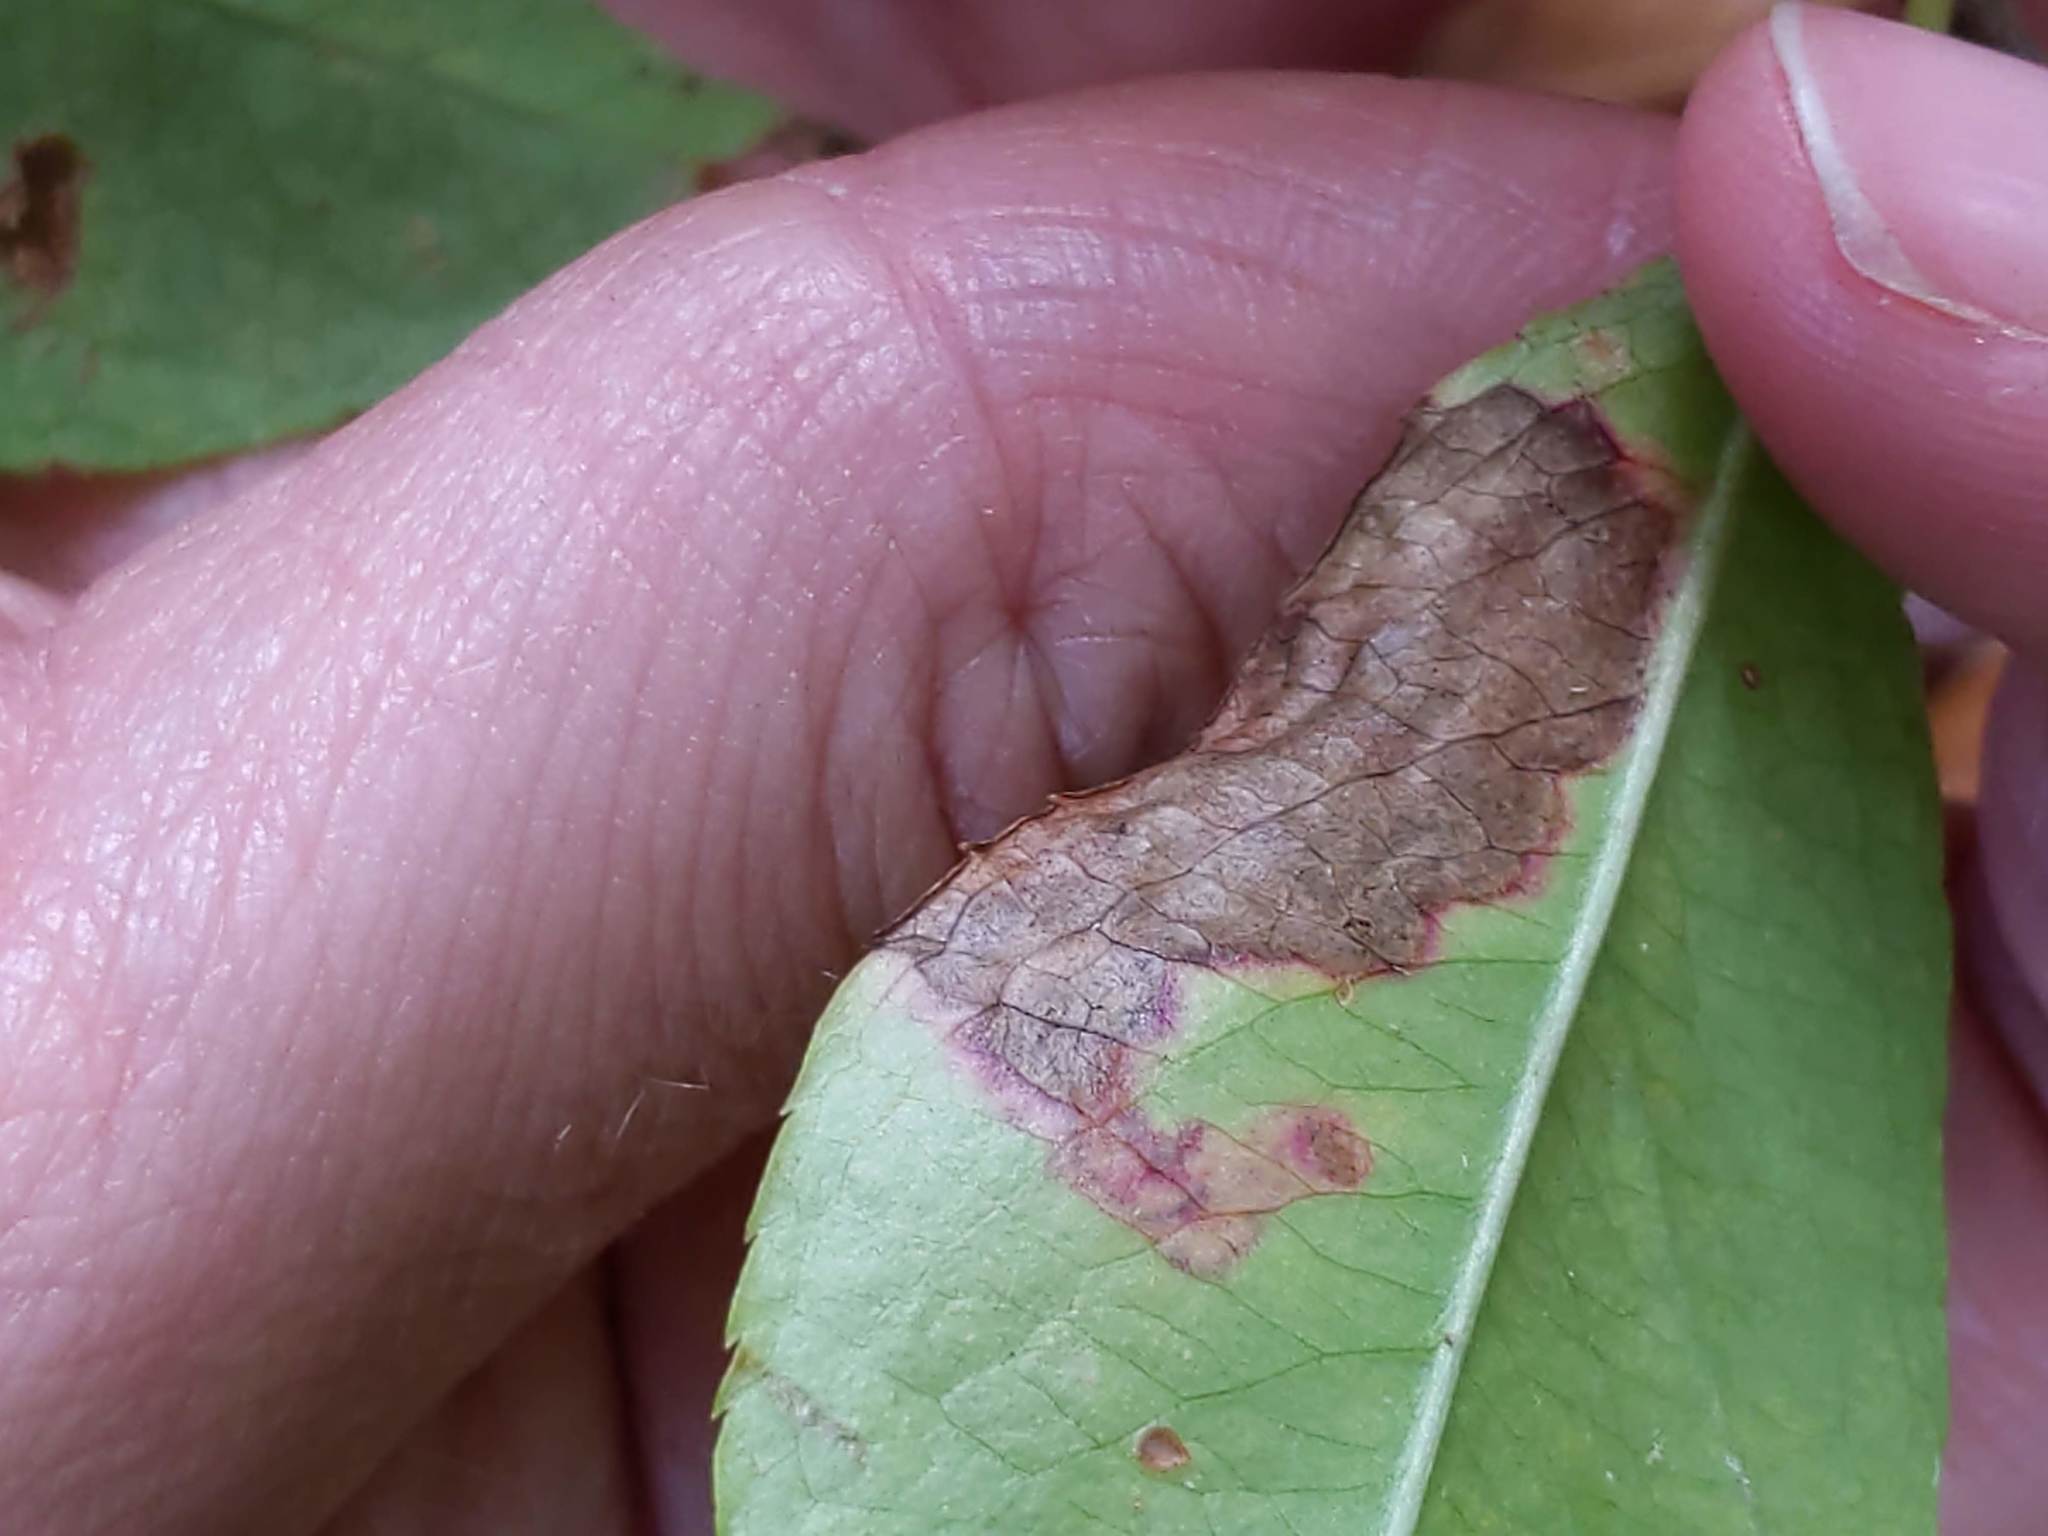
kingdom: Animalia
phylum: Arthropoda
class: Insecta
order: Lepidoptera
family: Nepticulidae
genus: Stigmella
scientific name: Stigmella prunifoliella
